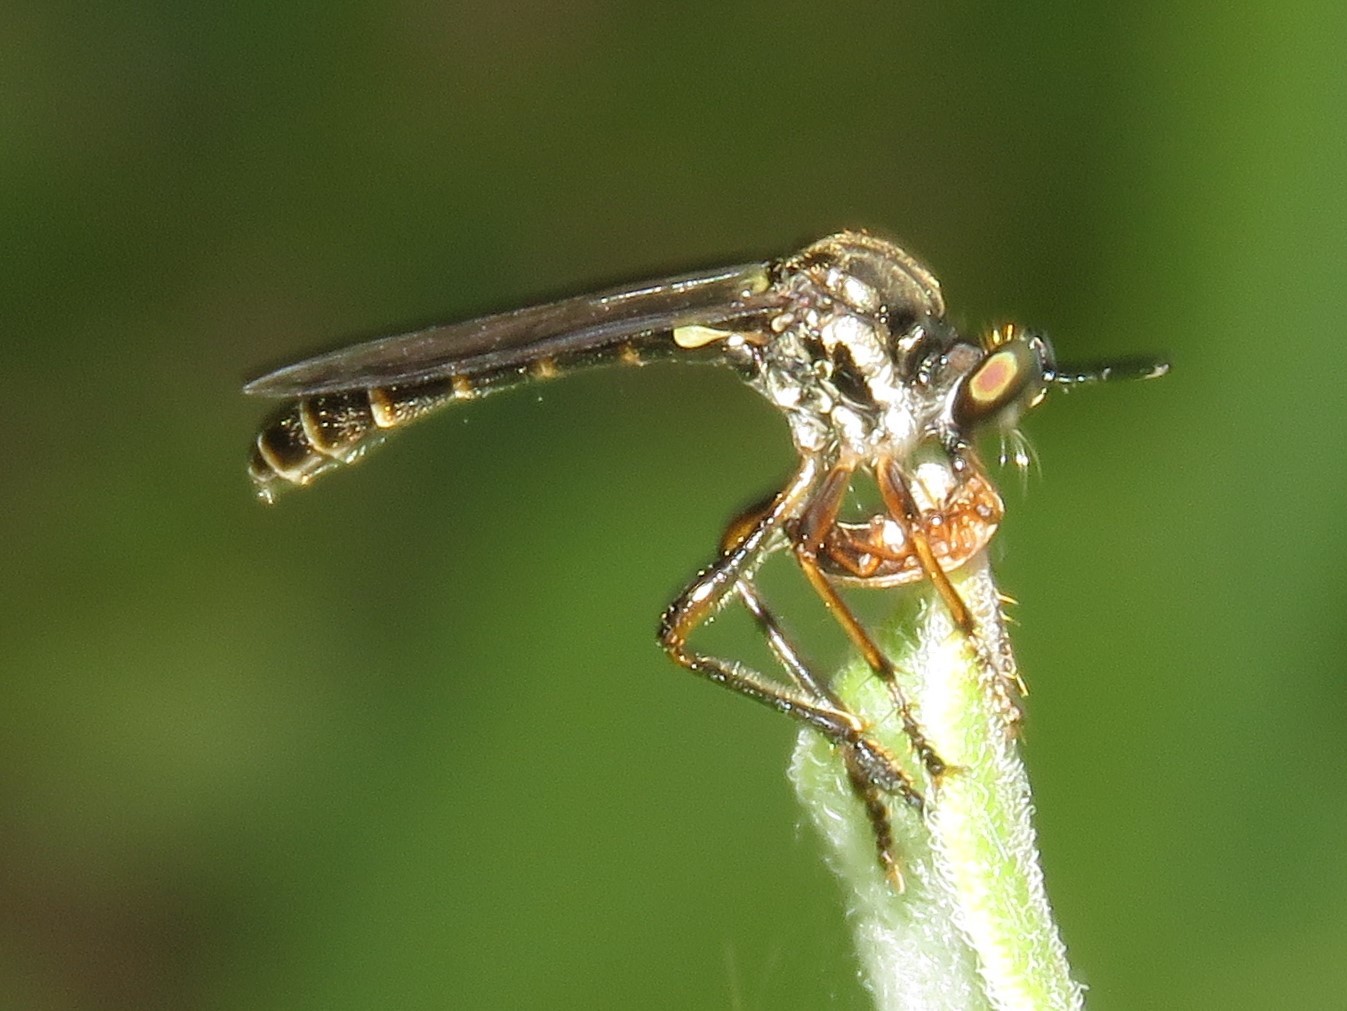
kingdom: Animalia
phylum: Arthropoda
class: Insecta
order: Diptera
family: Asilidae
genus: Dioctria
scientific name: Dioctria hyalipennis
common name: Stripe-legged robberfly
